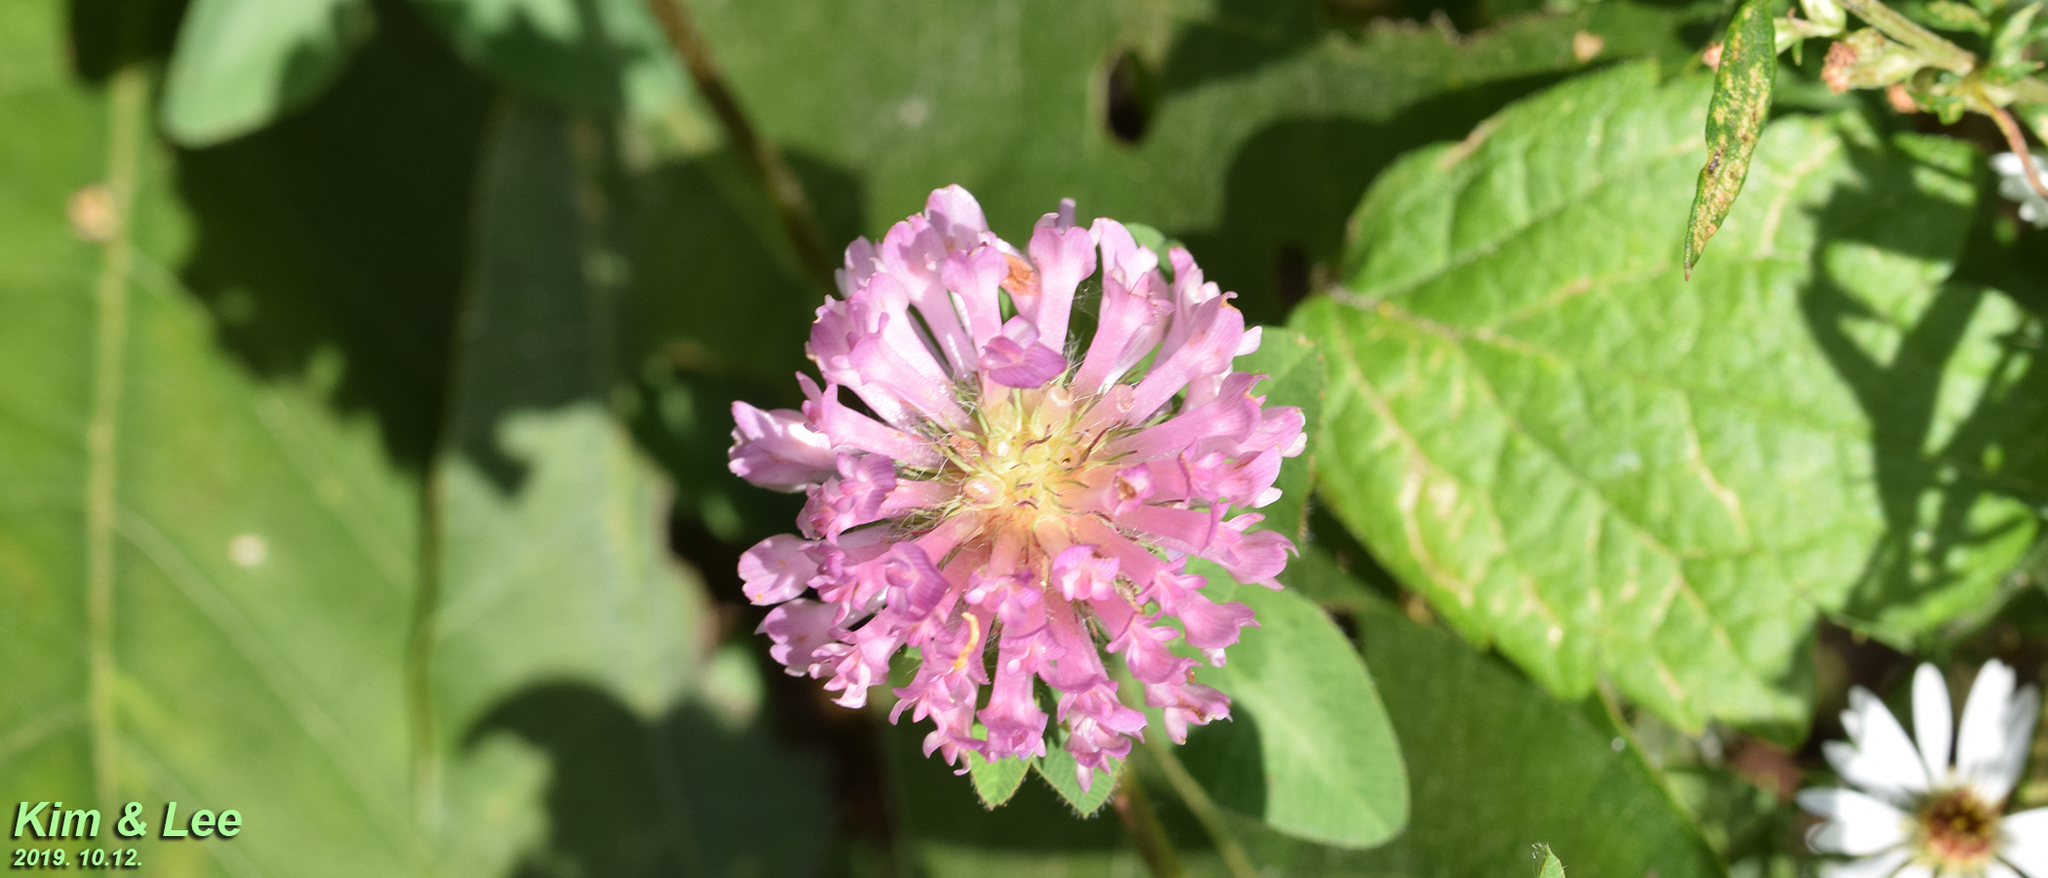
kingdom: Plantae
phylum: Tracheophyta
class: Magnoliopsida
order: Fabales
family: Fabaceae
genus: Trifolium
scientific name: Trifolium pratense
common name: Red clover
